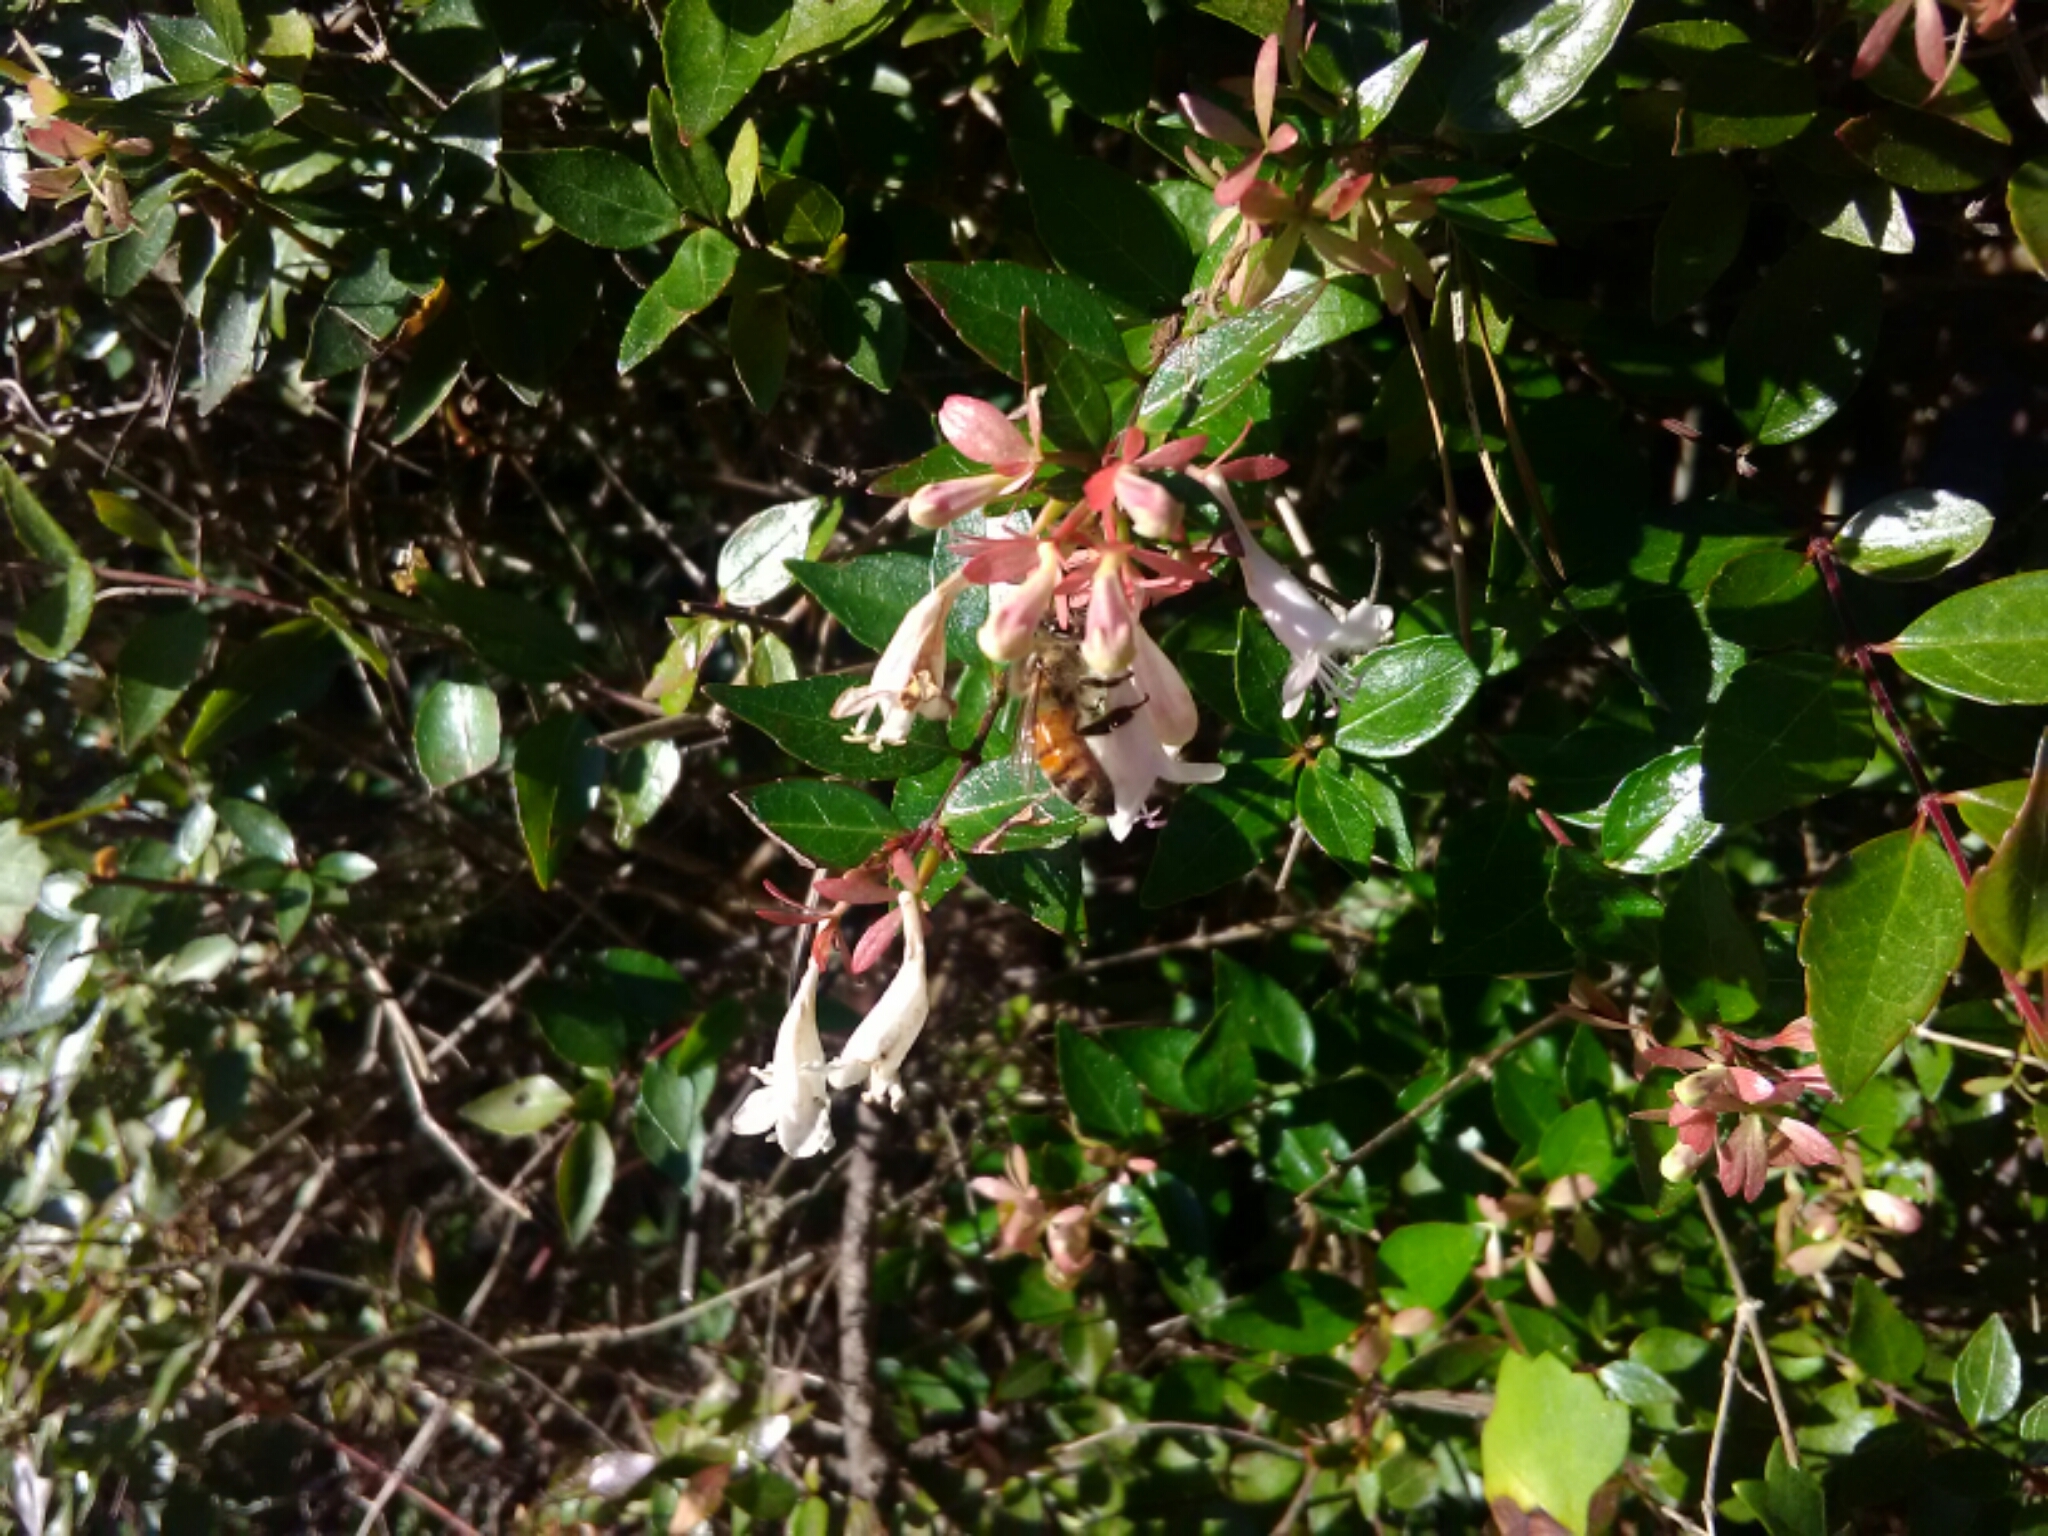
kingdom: Animalia
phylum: Arthropoda
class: Insecta
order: Hymenoptera
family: Apidae
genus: Apis
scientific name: Apis mellifera
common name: Honey bee
